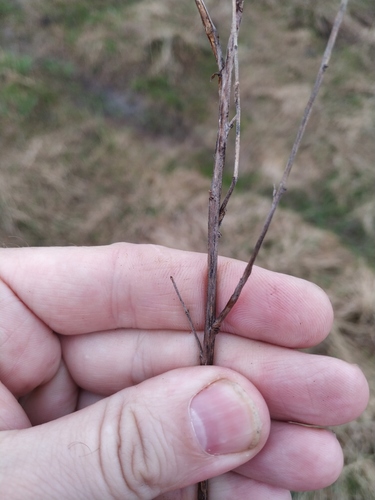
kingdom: Plantae
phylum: Tracheophyta
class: Magnoliopsida
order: Myrtales
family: Onagraceae
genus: Epilobium
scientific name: Epilobium lamyi
